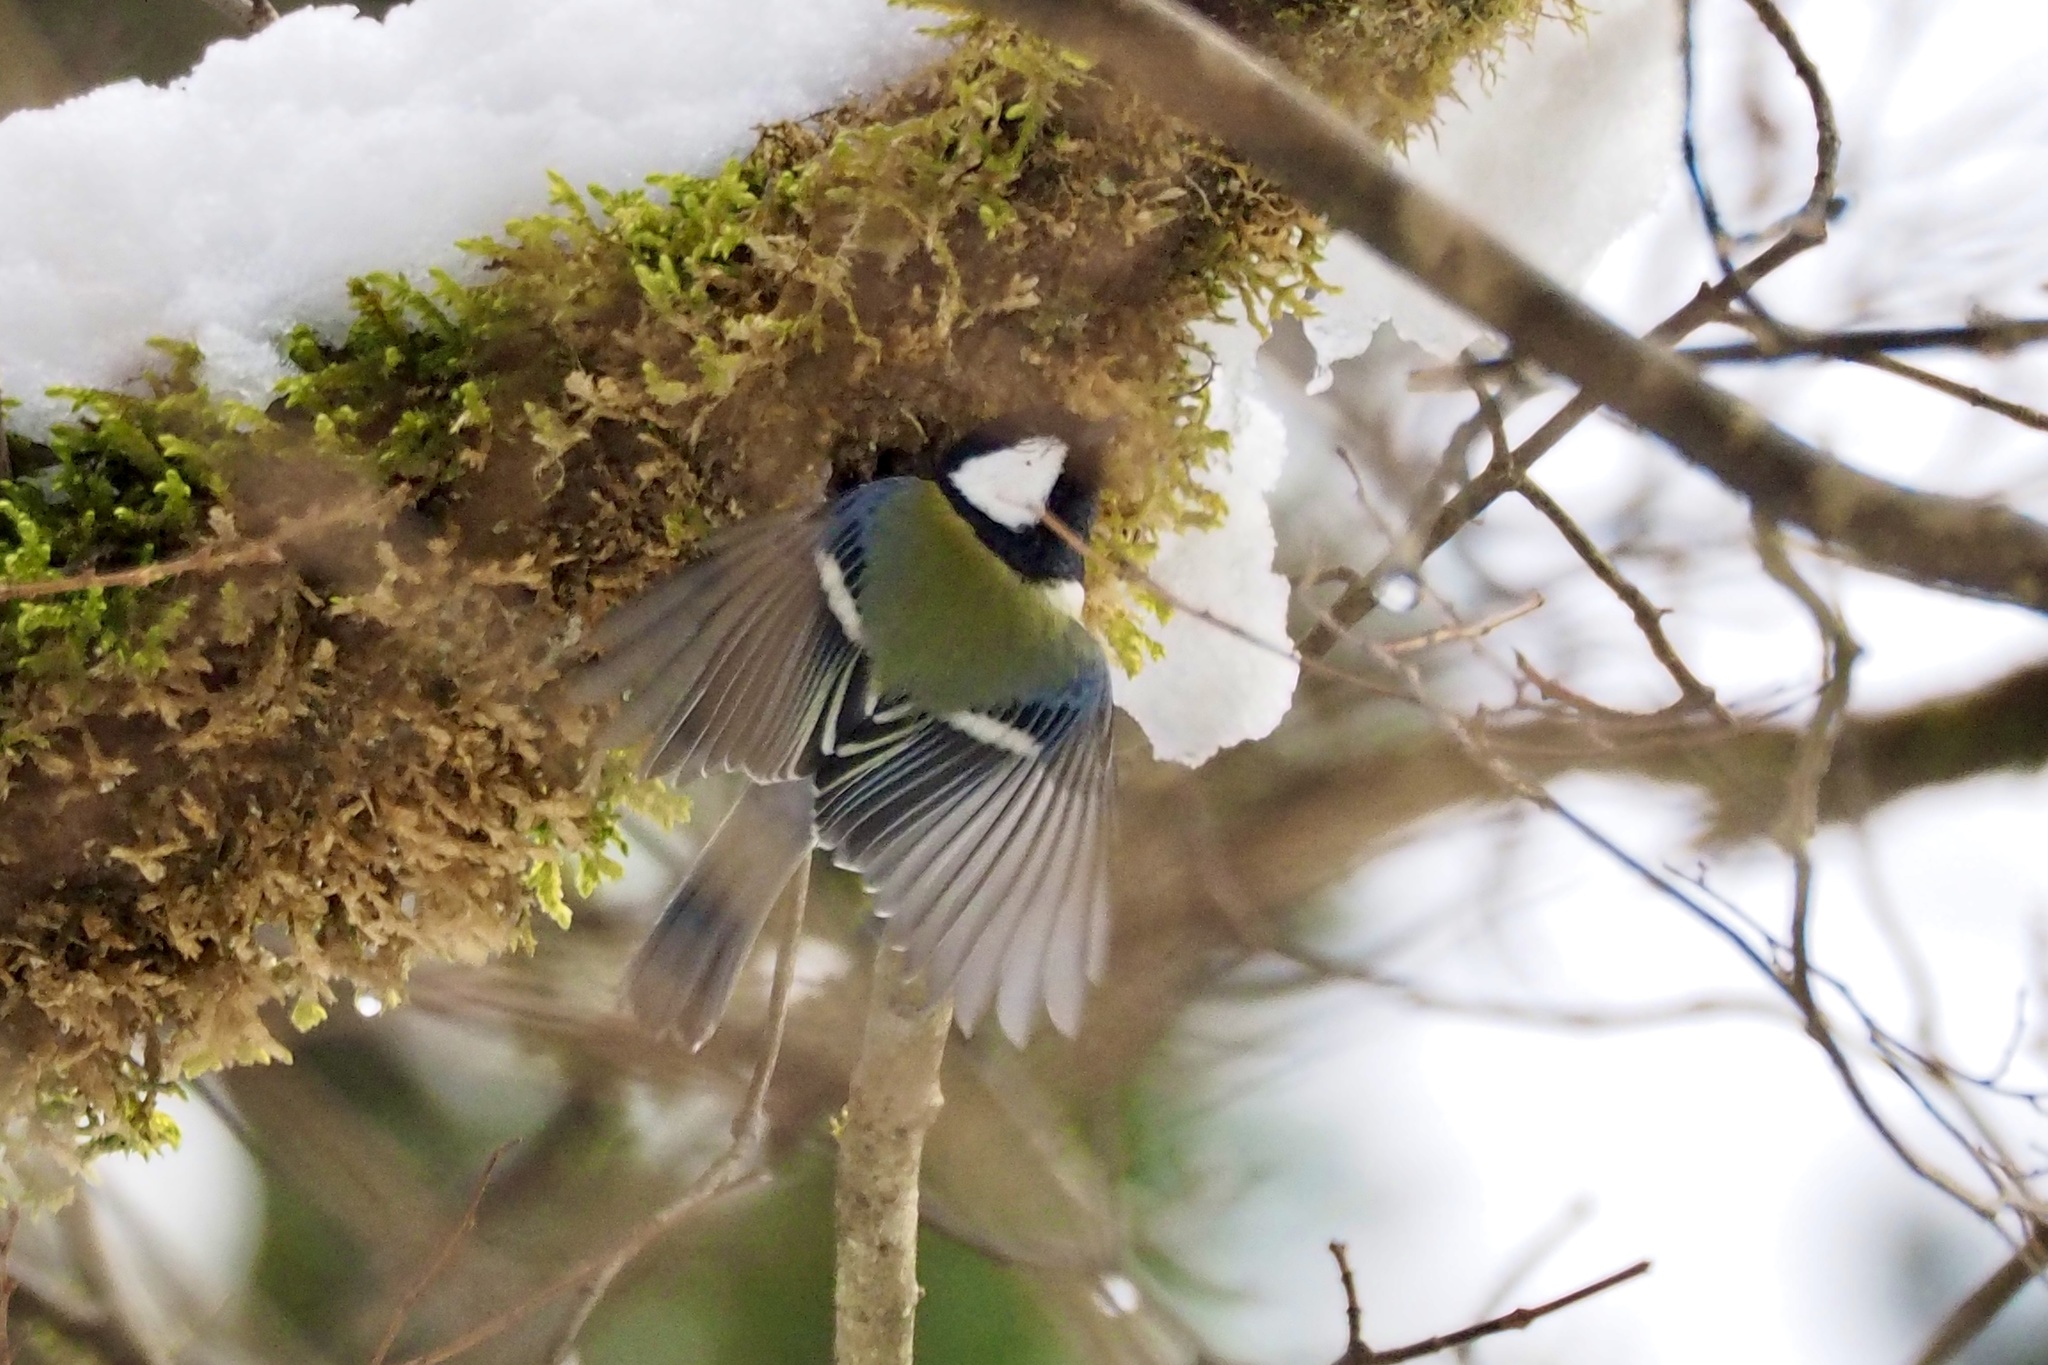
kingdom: Animalia
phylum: Chordata
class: Aves
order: Passeriformes
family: Paridae
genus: Parus
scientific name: Parus minor
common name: Japanese tit
